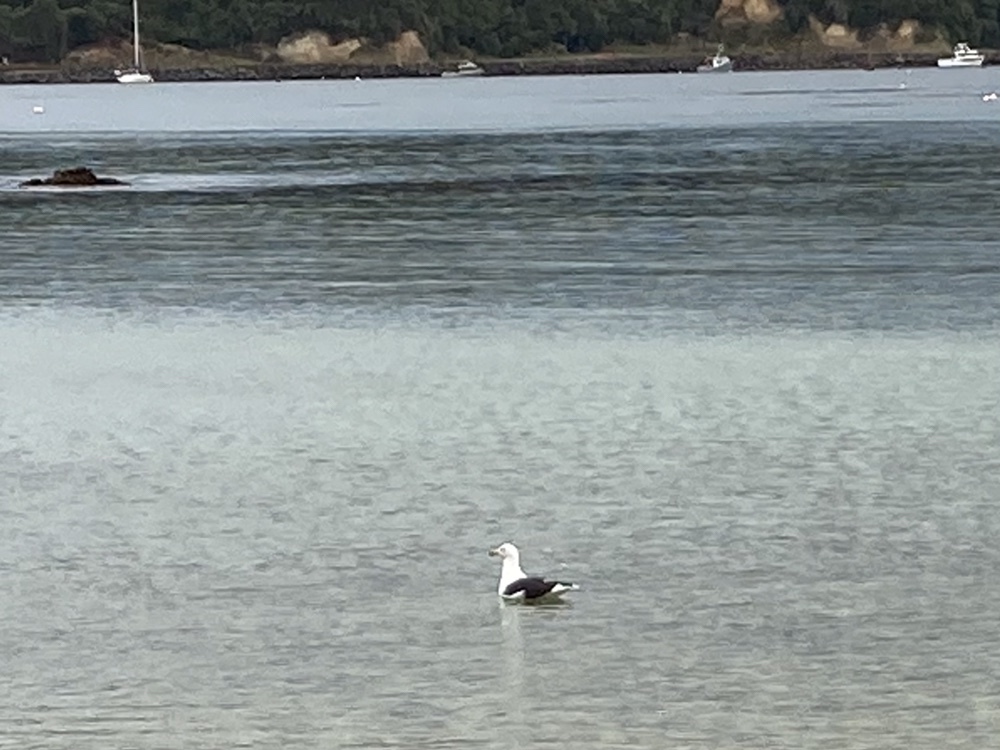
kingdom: Animalia
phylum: Chordata
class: Aves
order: Charadriiformes
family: Laridae
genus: Larus
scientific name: Larus dominicanus
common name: Kelp gull
